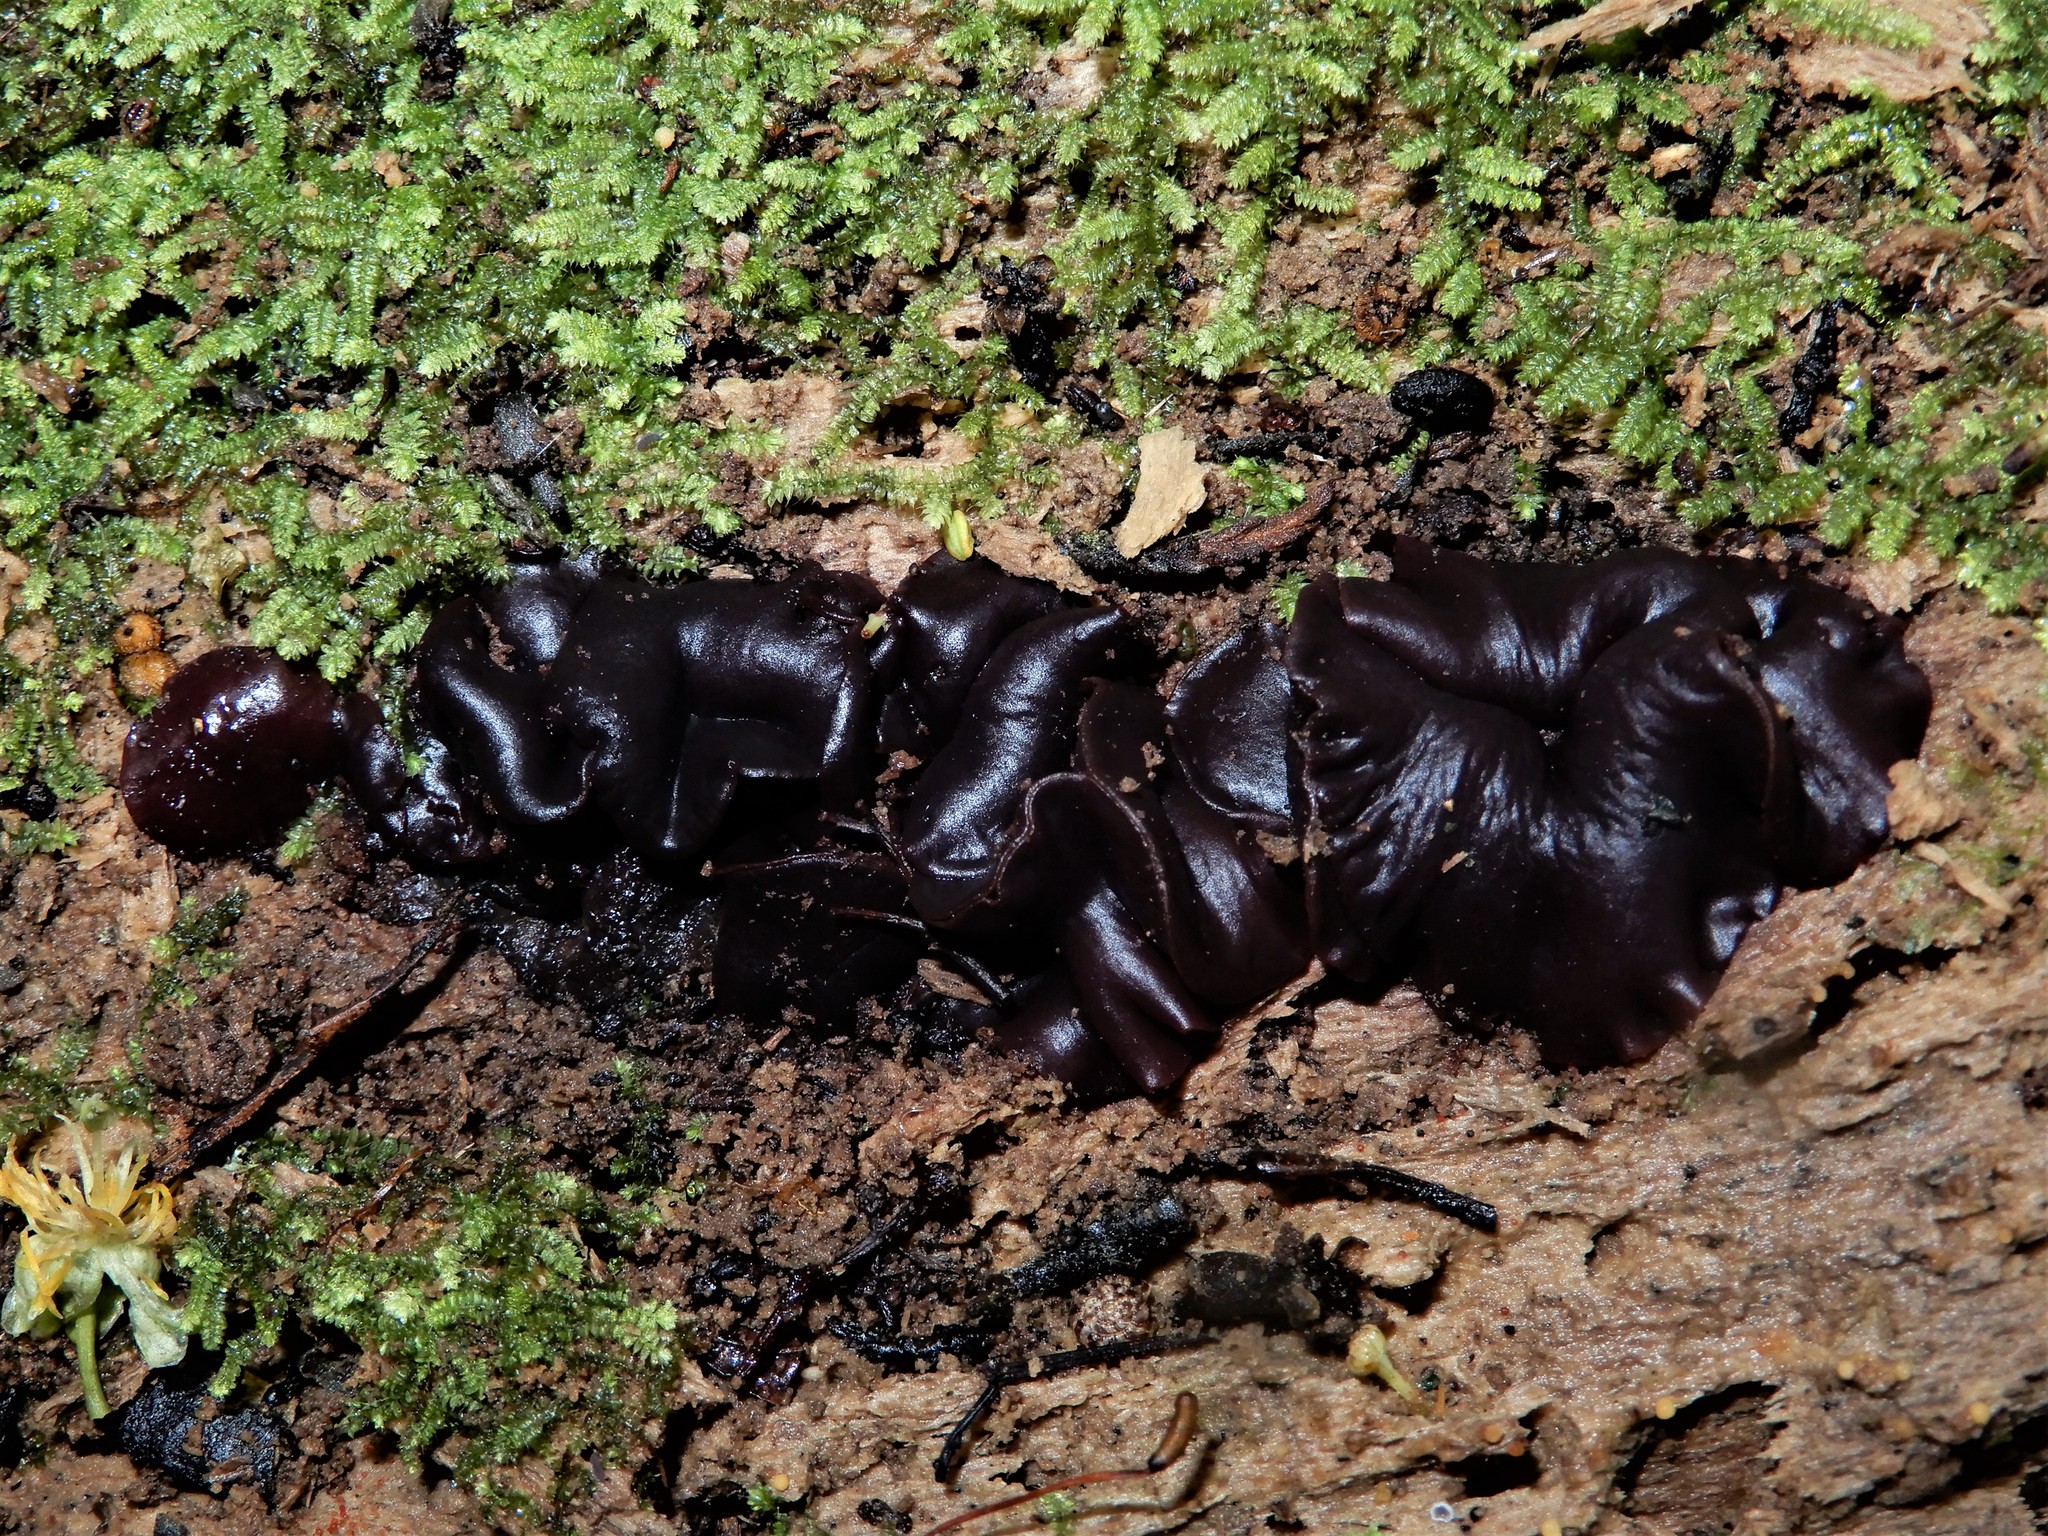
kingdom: Fungi
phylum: Ascomycota
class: Leotiomycetes
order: Helotiales
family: Gelatinodiscaceae
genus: Coryne
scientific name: Coryne tasmanica
